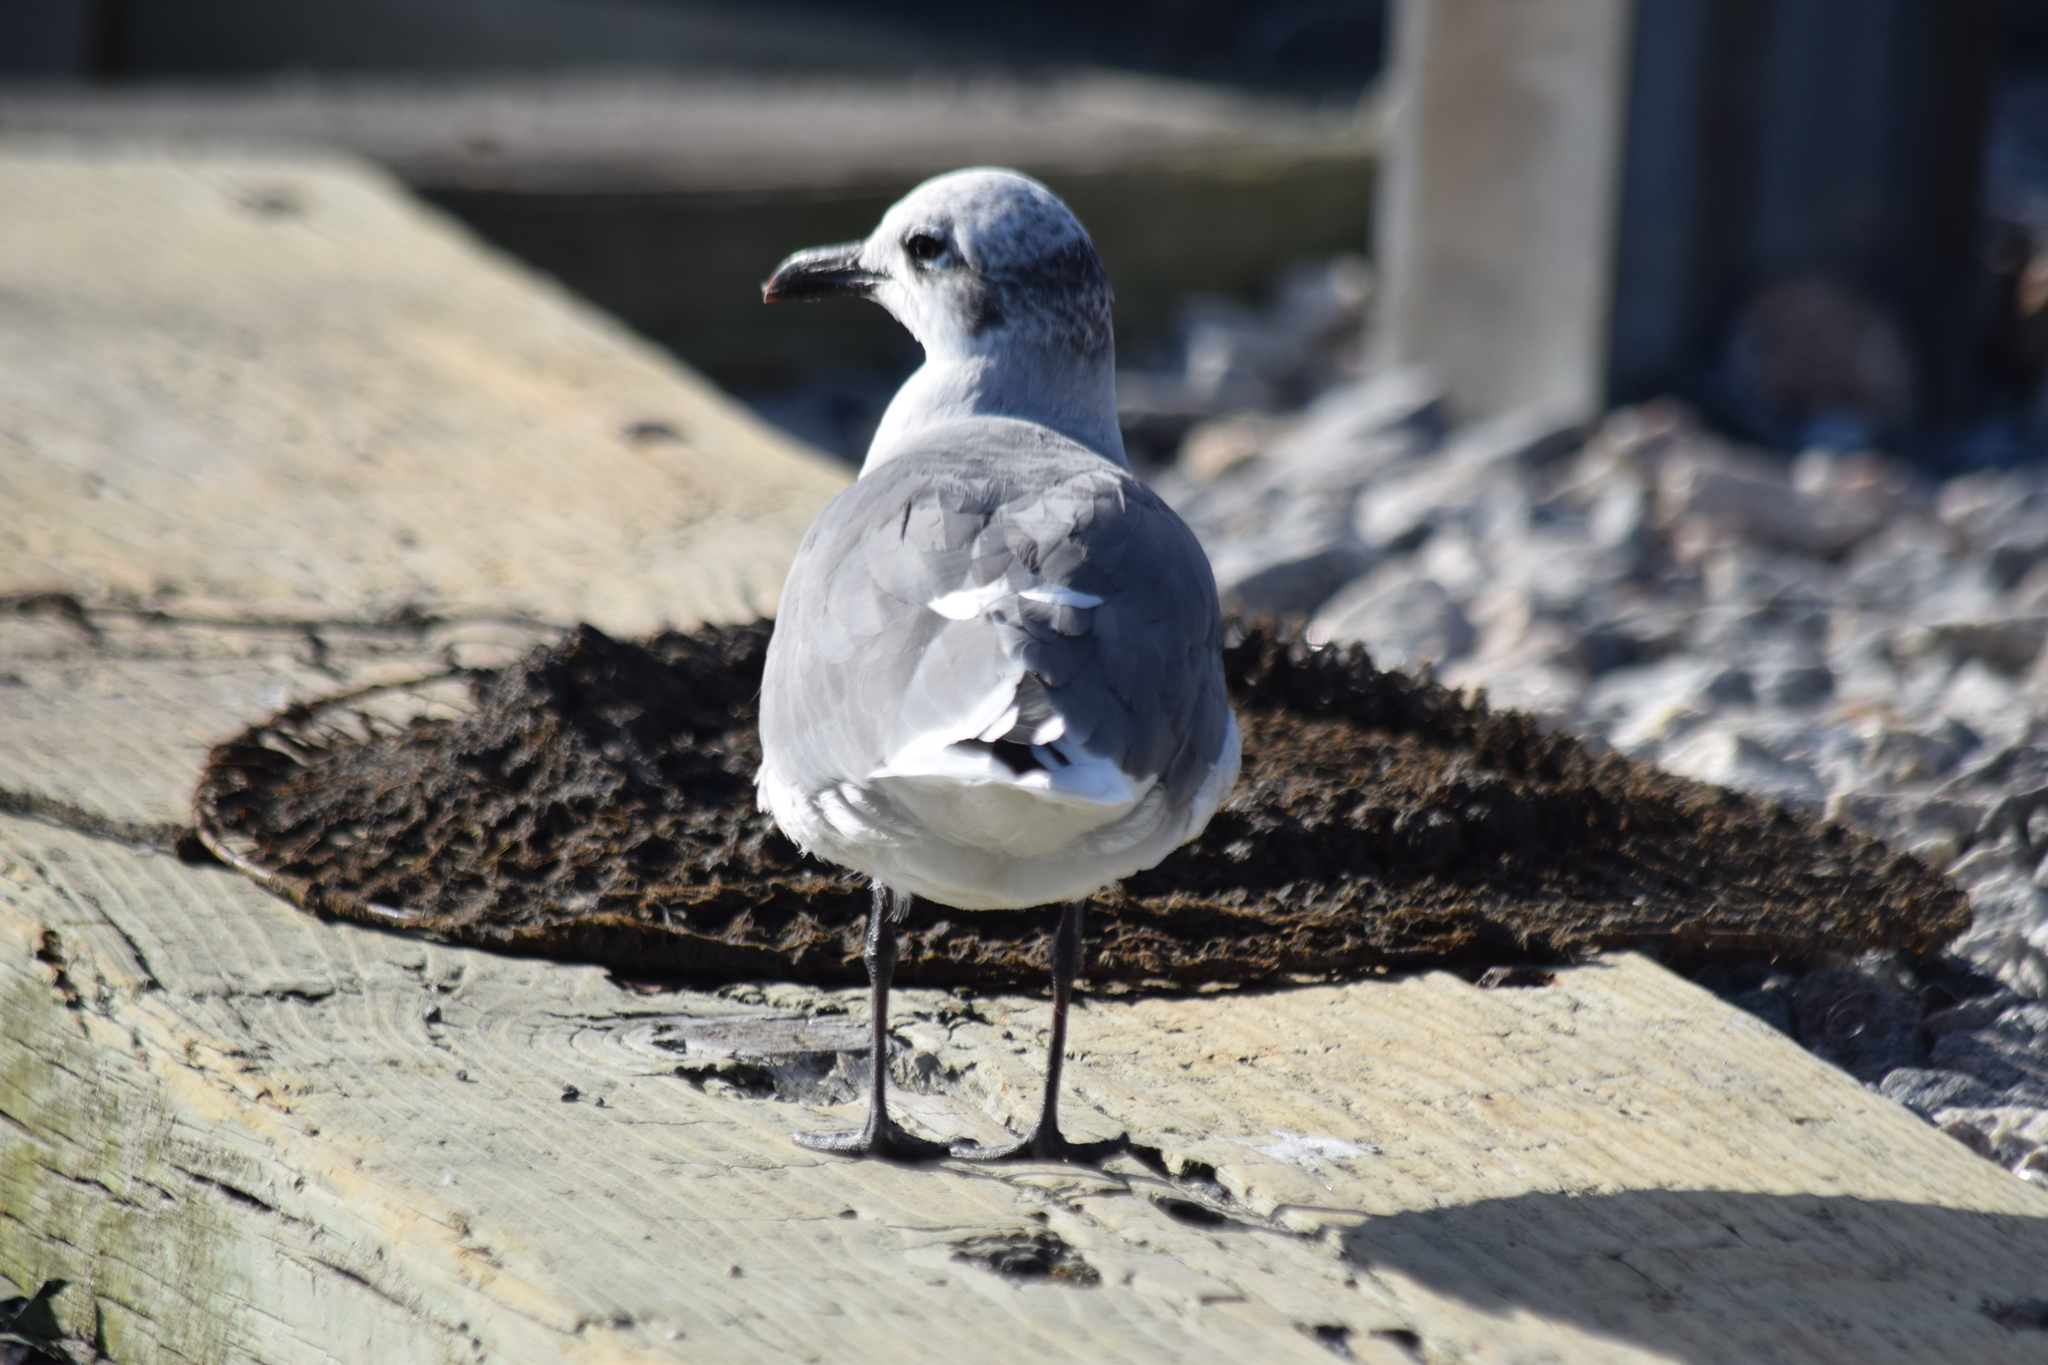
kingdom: Animalia
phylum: Chordata
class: Aves
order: Charadriiformes
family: Laridae
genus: Leucophaeus
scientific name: Leucophaeus atricilla
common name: Laughing gull
